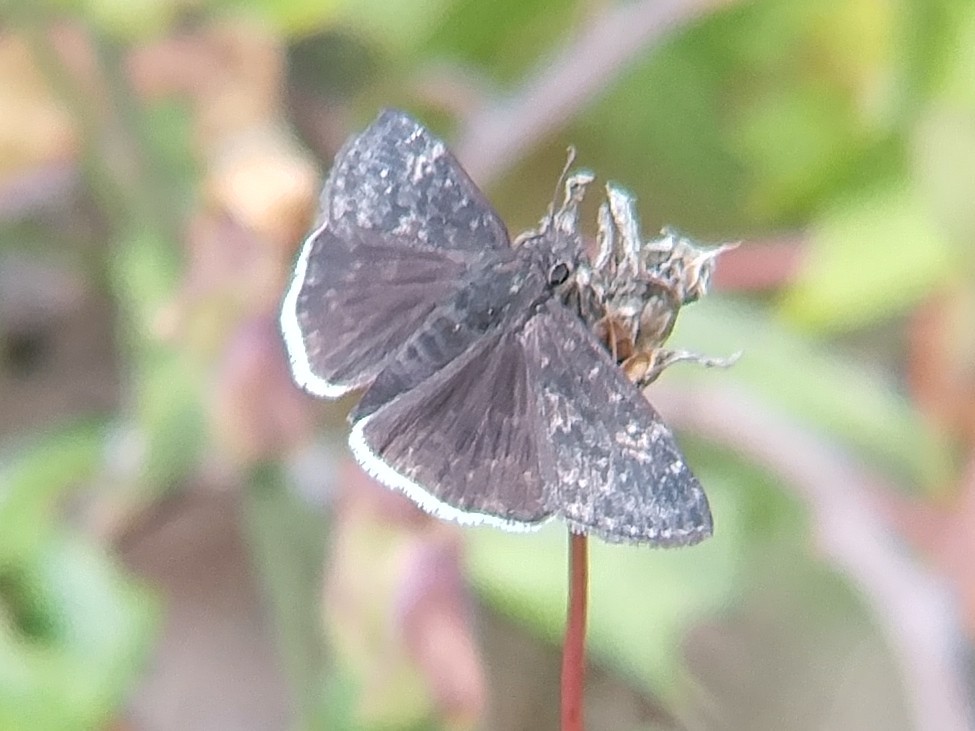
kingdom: Animalia
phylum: Arthropoda
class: Insecta
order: Lepidoptera
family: Hesperiidae
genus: Erynnis
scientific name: Erynnis funeralis
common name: Funereal duskywing
